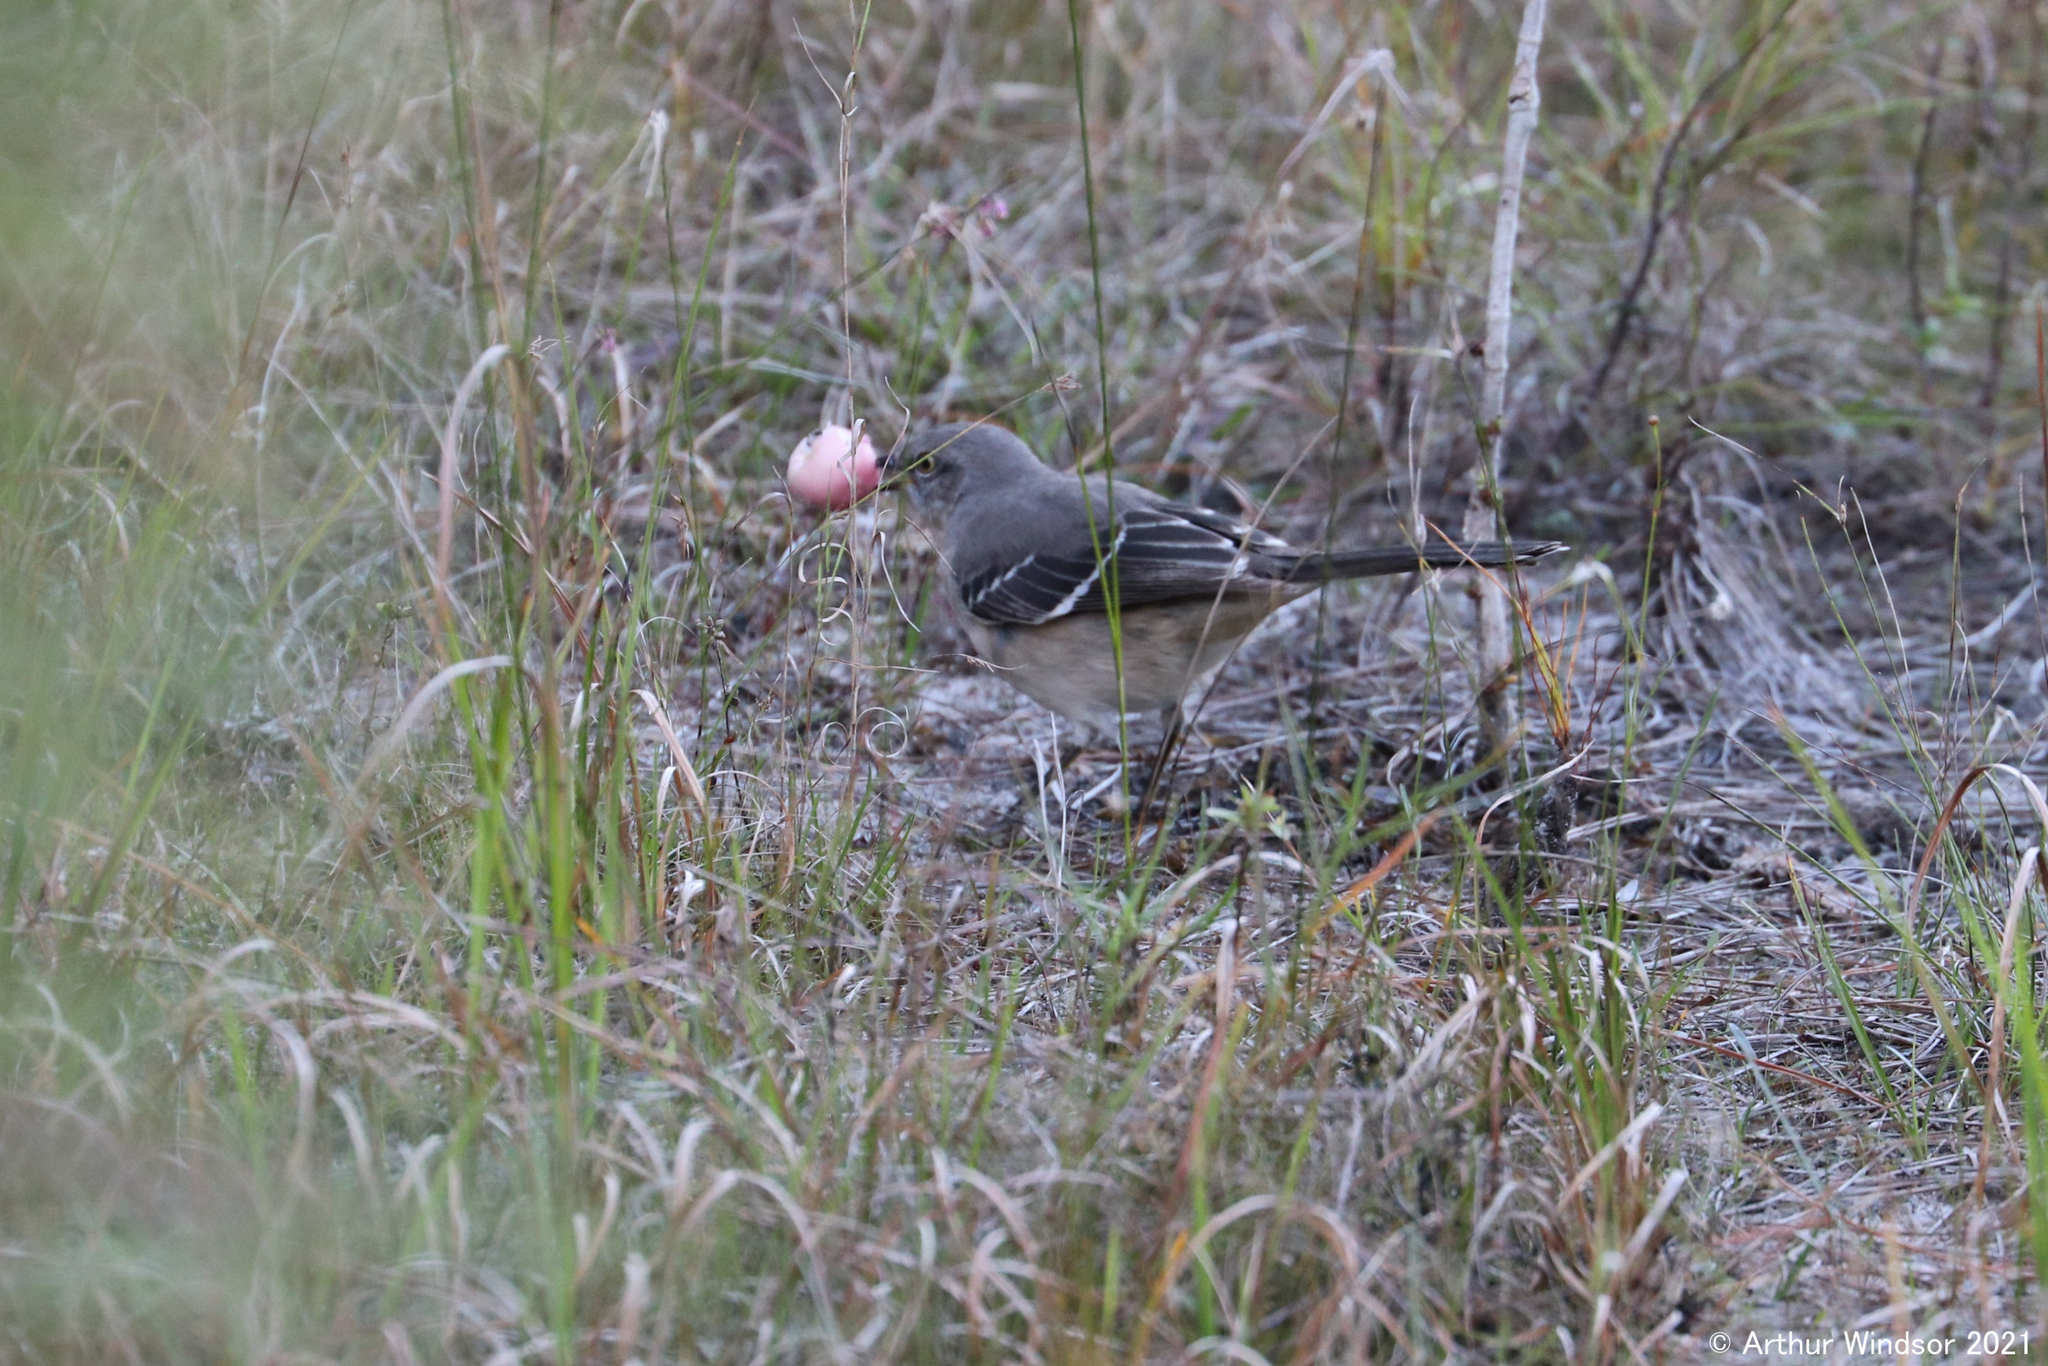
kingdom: Animalia
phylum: Chordata
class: Aves
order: Passeriformes
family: Mimidae
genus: Mimus
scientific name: Mimus polyglottos
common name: Northern mockingbird
